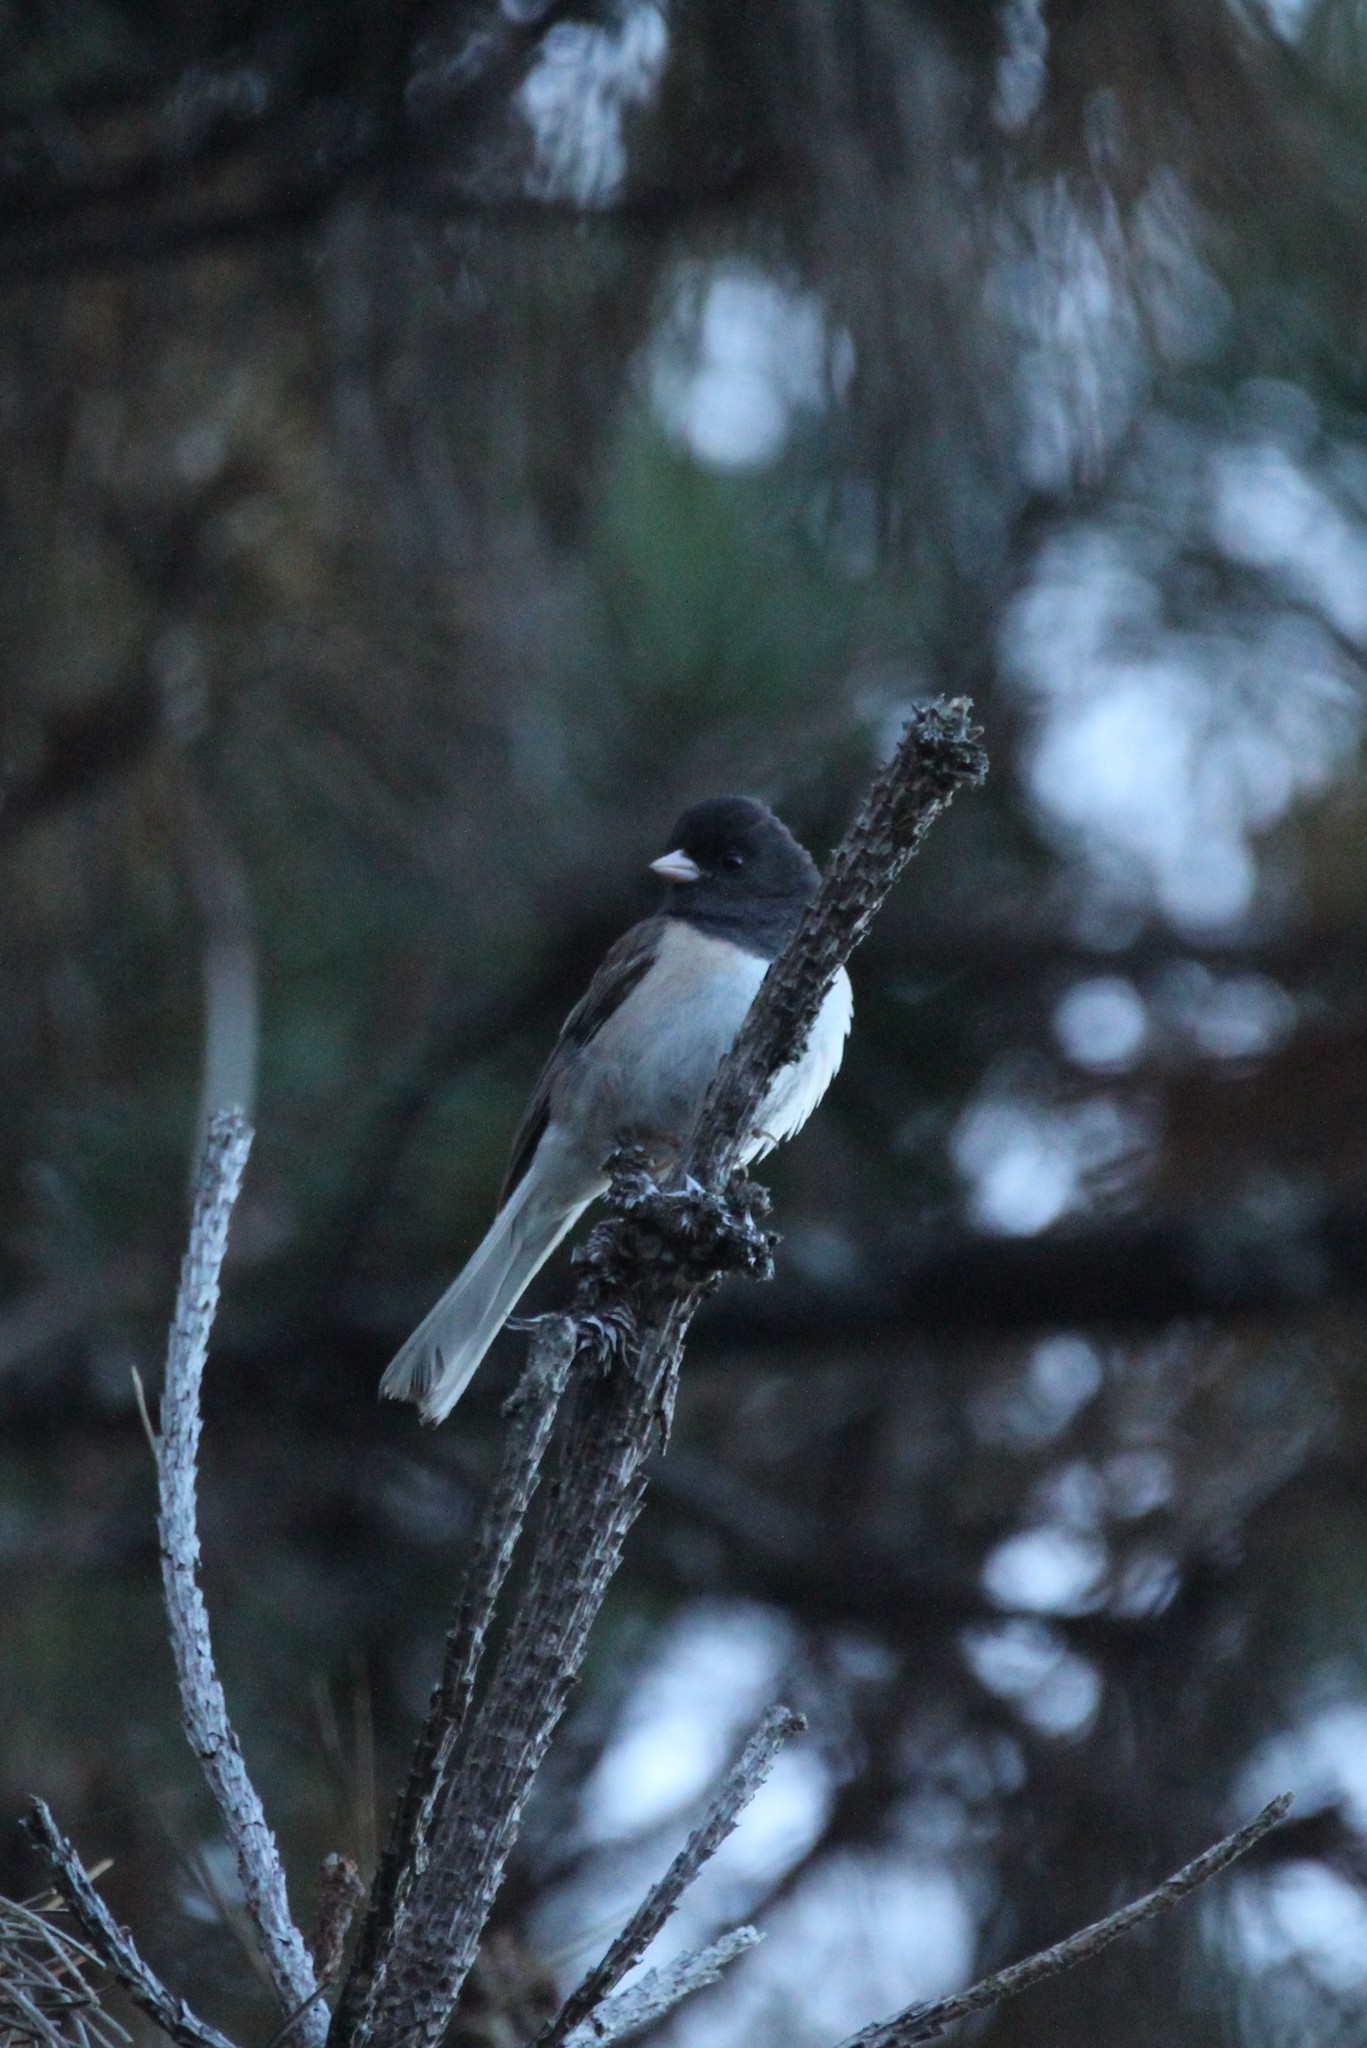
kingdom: Animalia
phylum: Chordata
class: Aves
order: Passeriformes
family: Passerellidae
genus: Junco
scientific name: Junco hyemalis
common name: Dark-eyed junco
